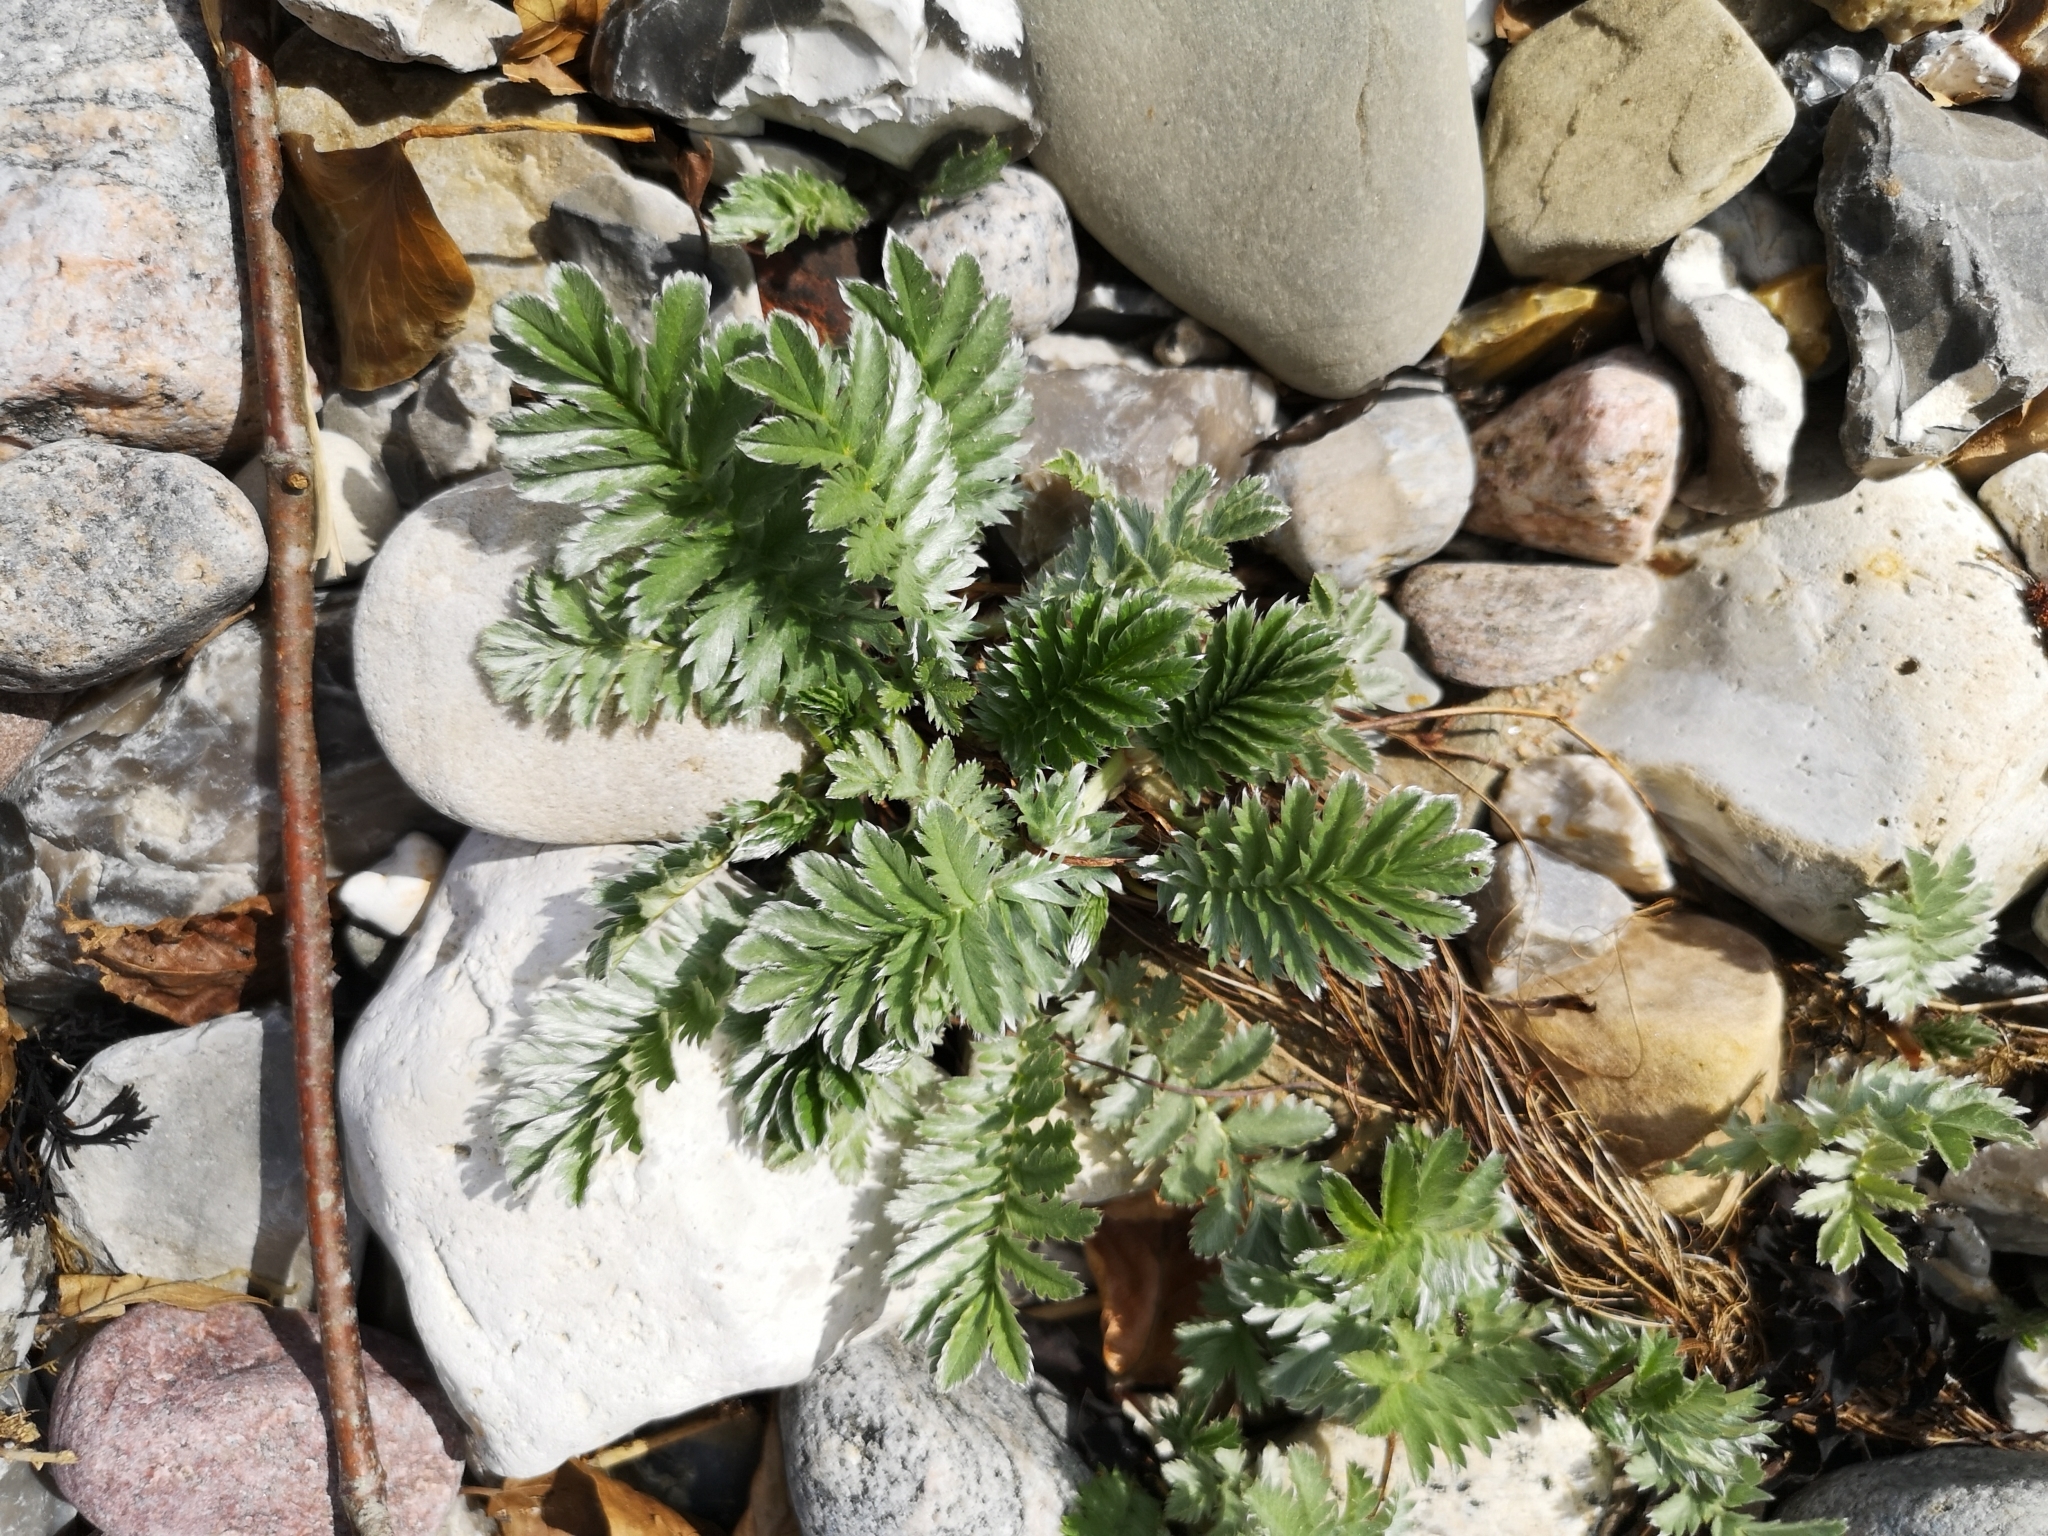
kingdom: Plantae
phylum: Tracheophyta
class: Magnoliopsida
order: Rosales
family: Rosaceae
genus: Argentina
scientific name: Argentina anserina
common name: Common silverweed
